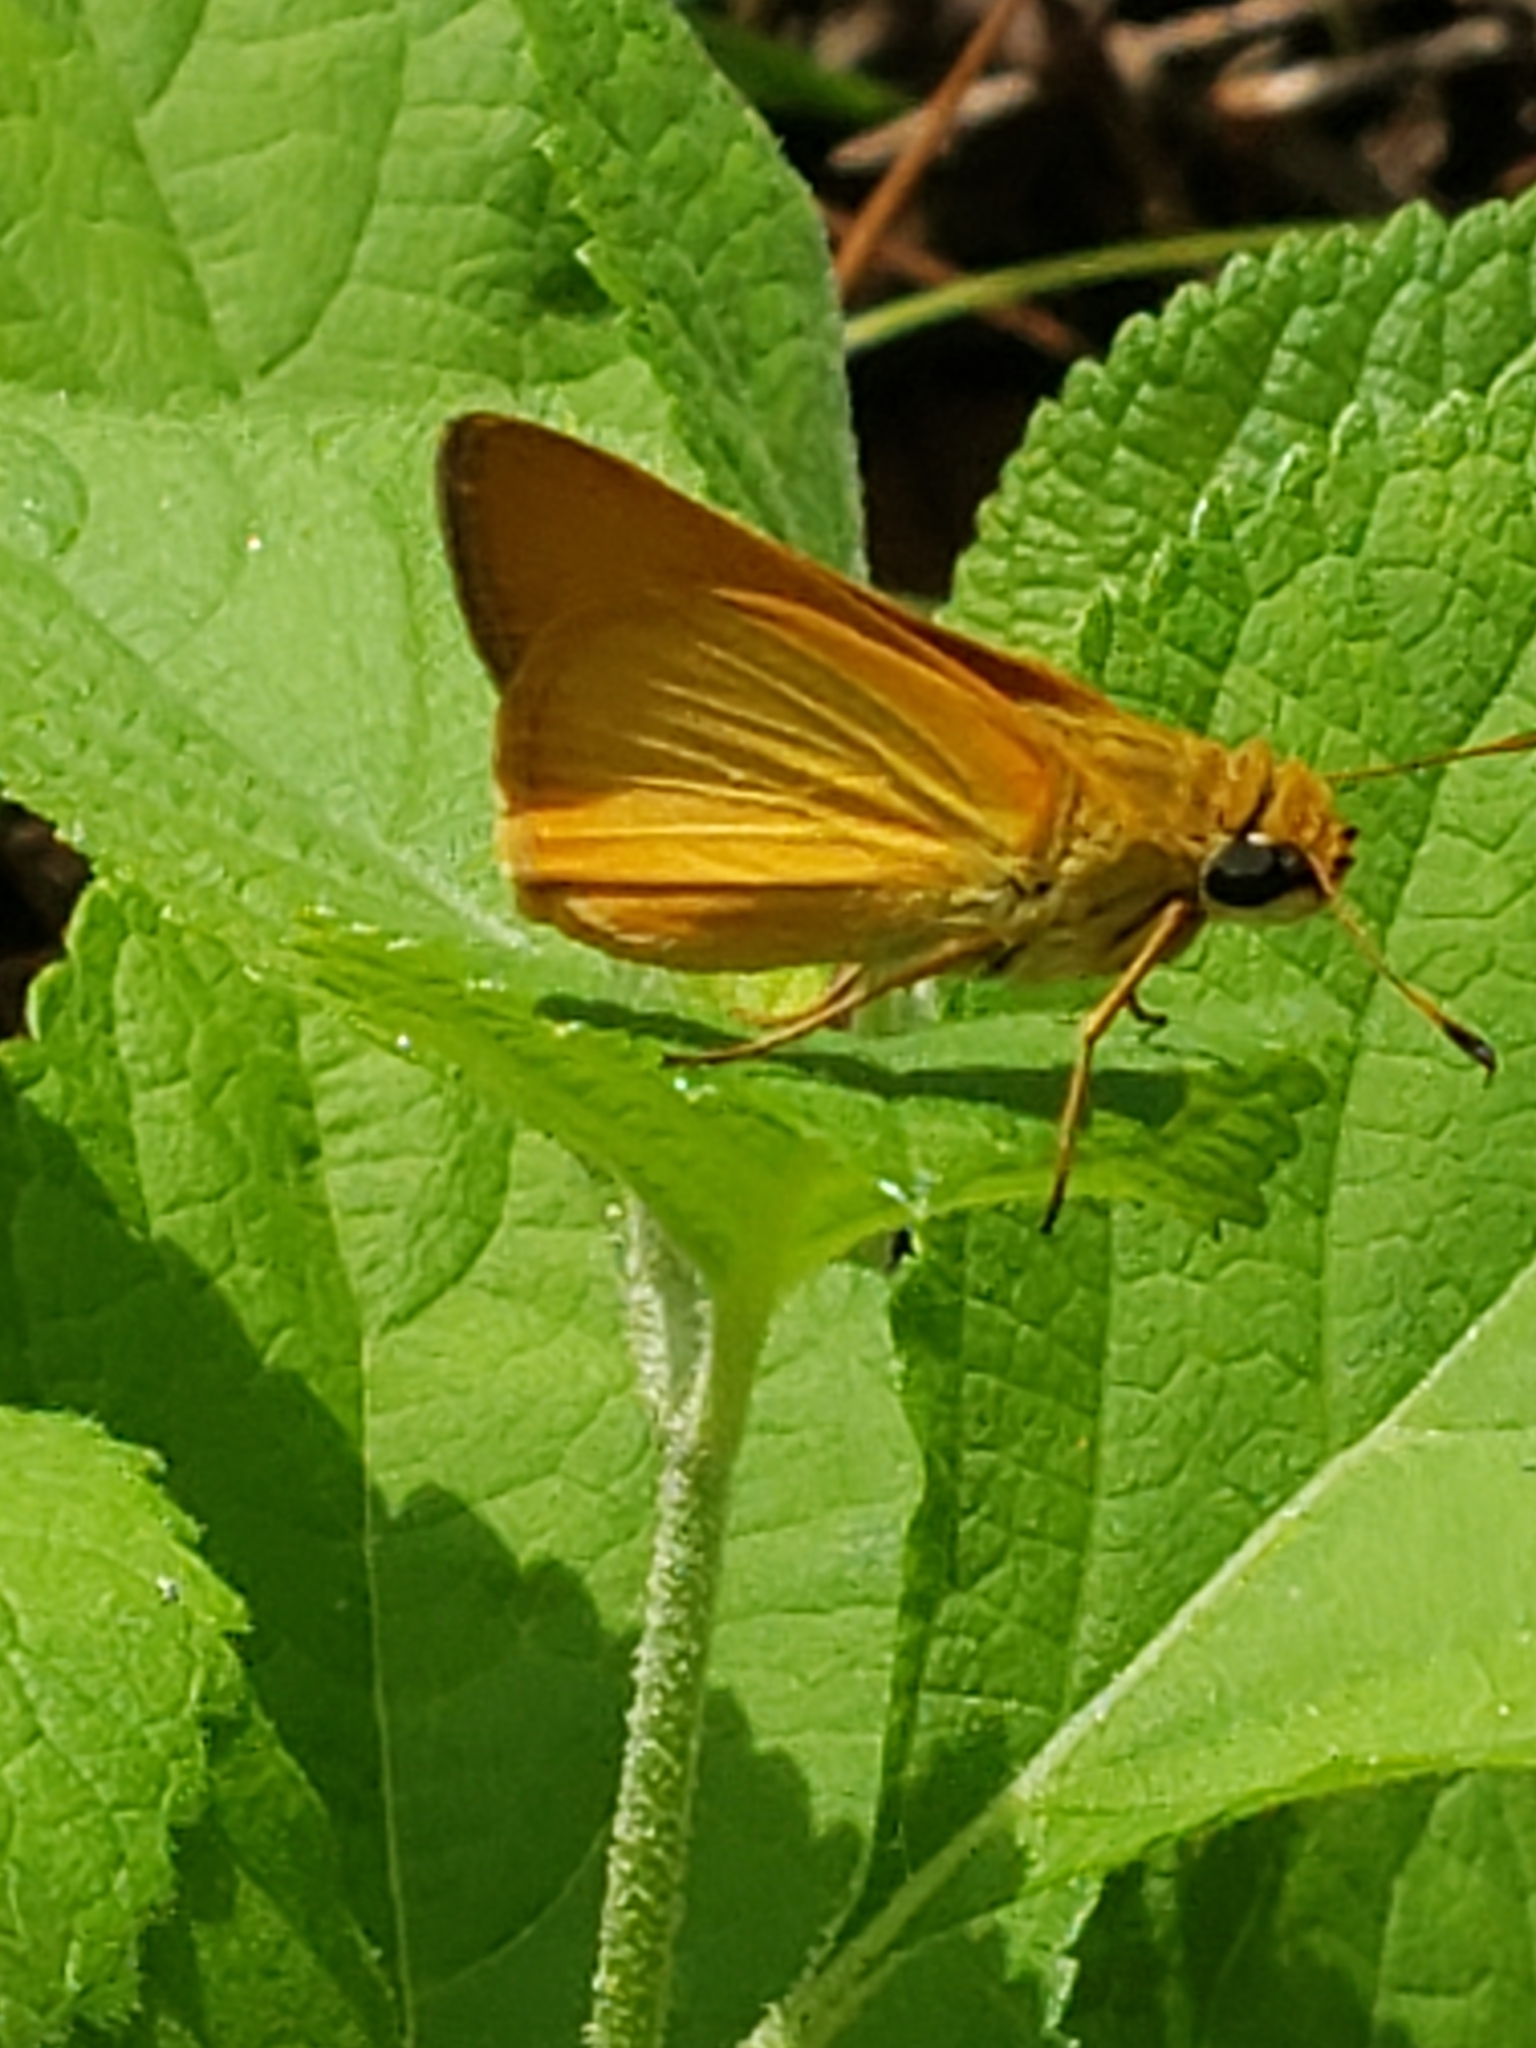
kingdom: Animalia
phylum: Arthropoda
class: Insecta
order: Lepidoptera
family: Hesperiidae
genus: Atrytone
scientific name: Atrytone delaware
